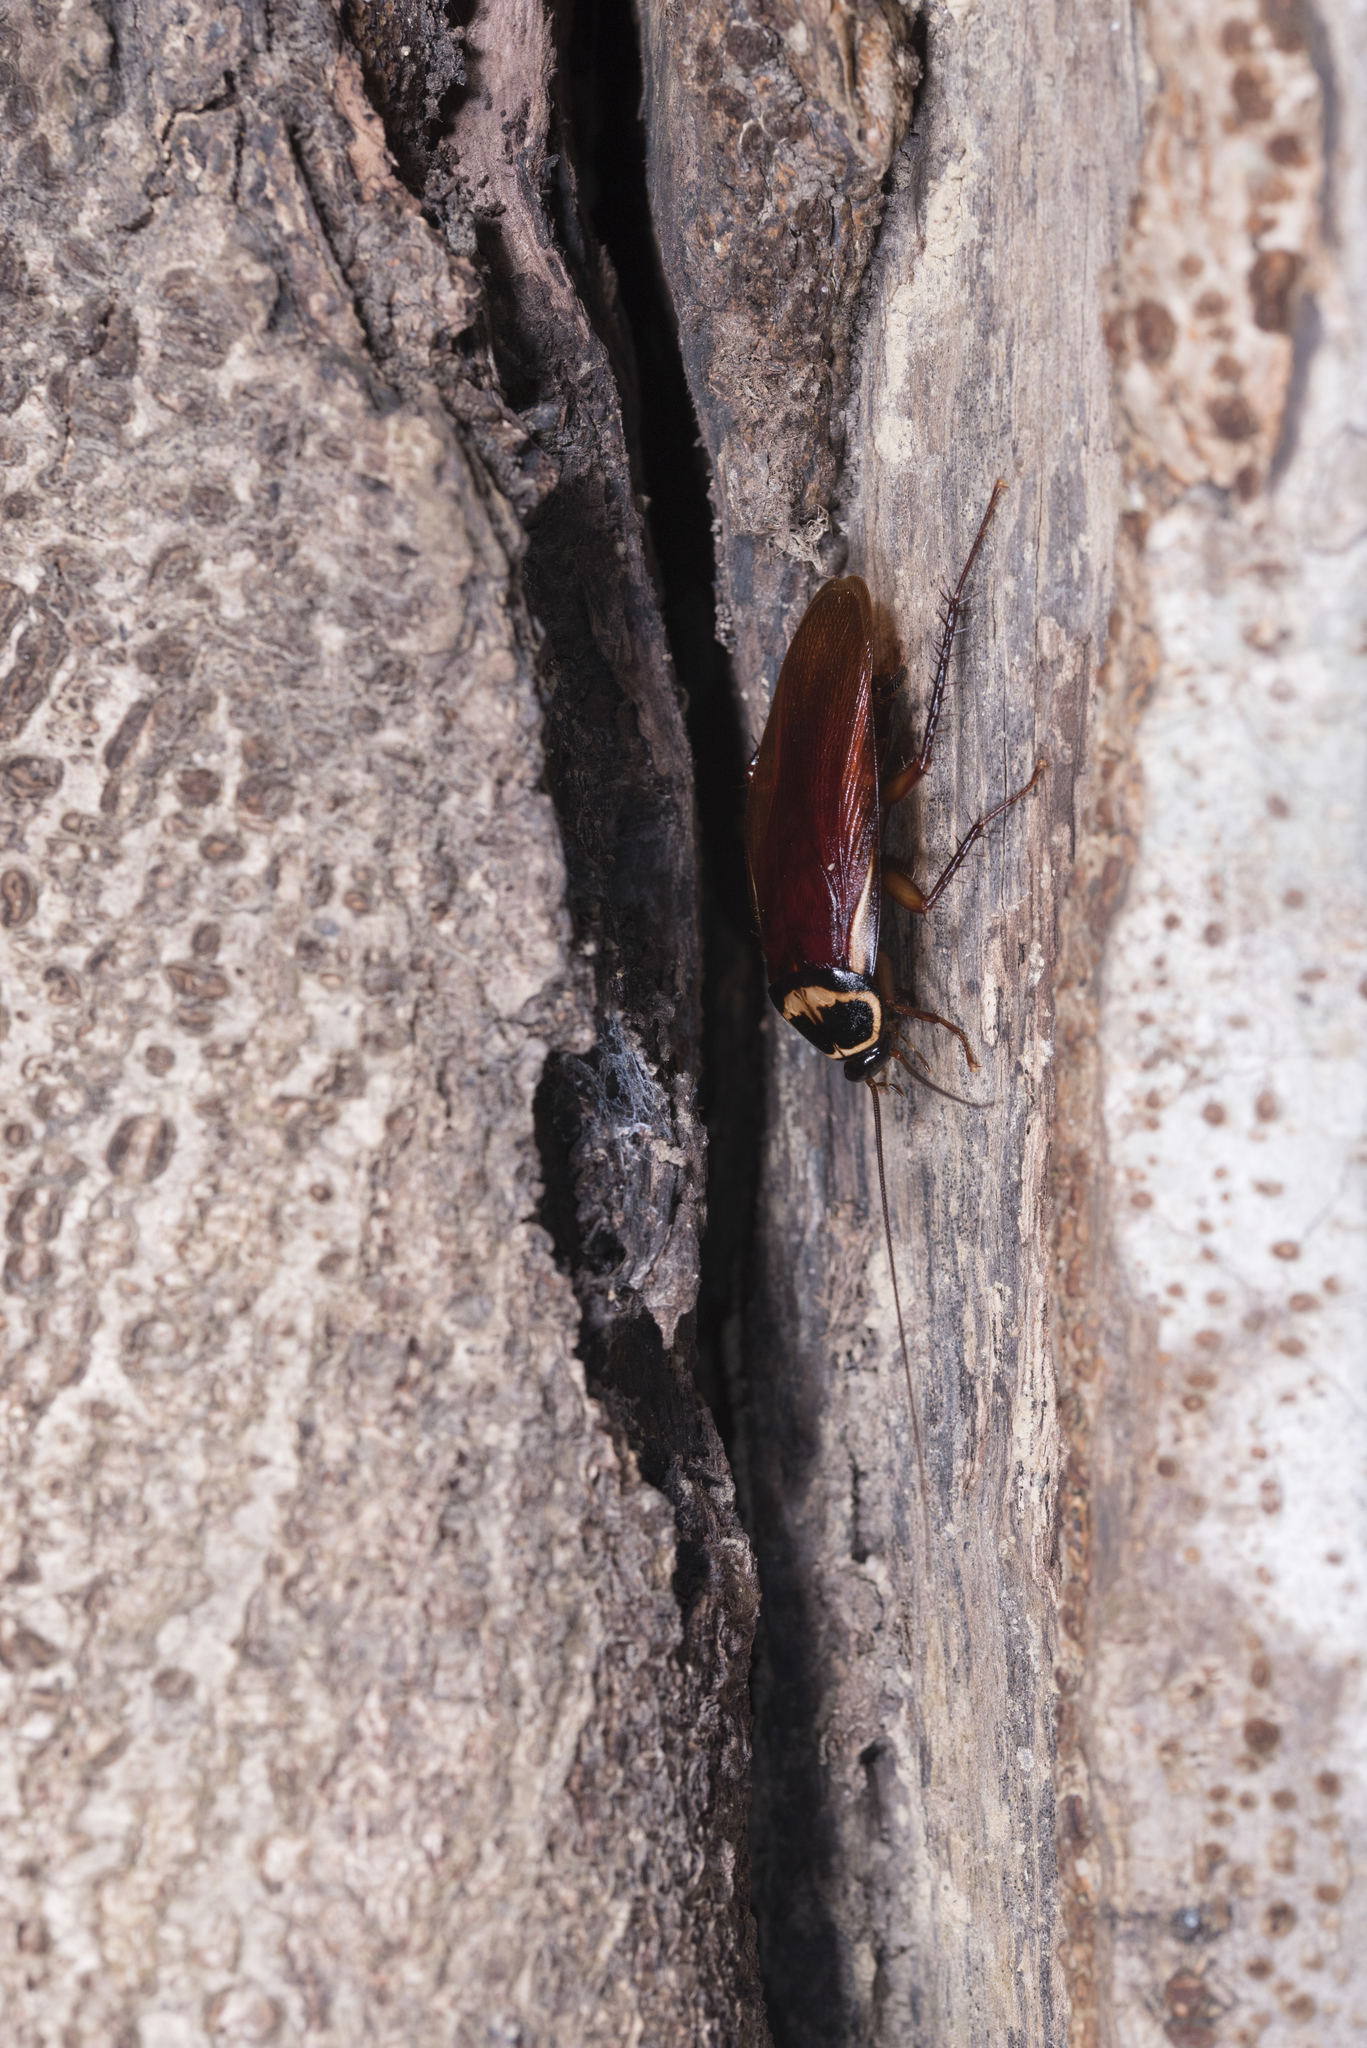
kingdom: Animalia
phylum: Arthropoda
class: Insecta
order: Blattodea
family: Blattidae
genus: Periplaneta
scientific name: Periplaneta australasiae
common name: Australian cockroach
